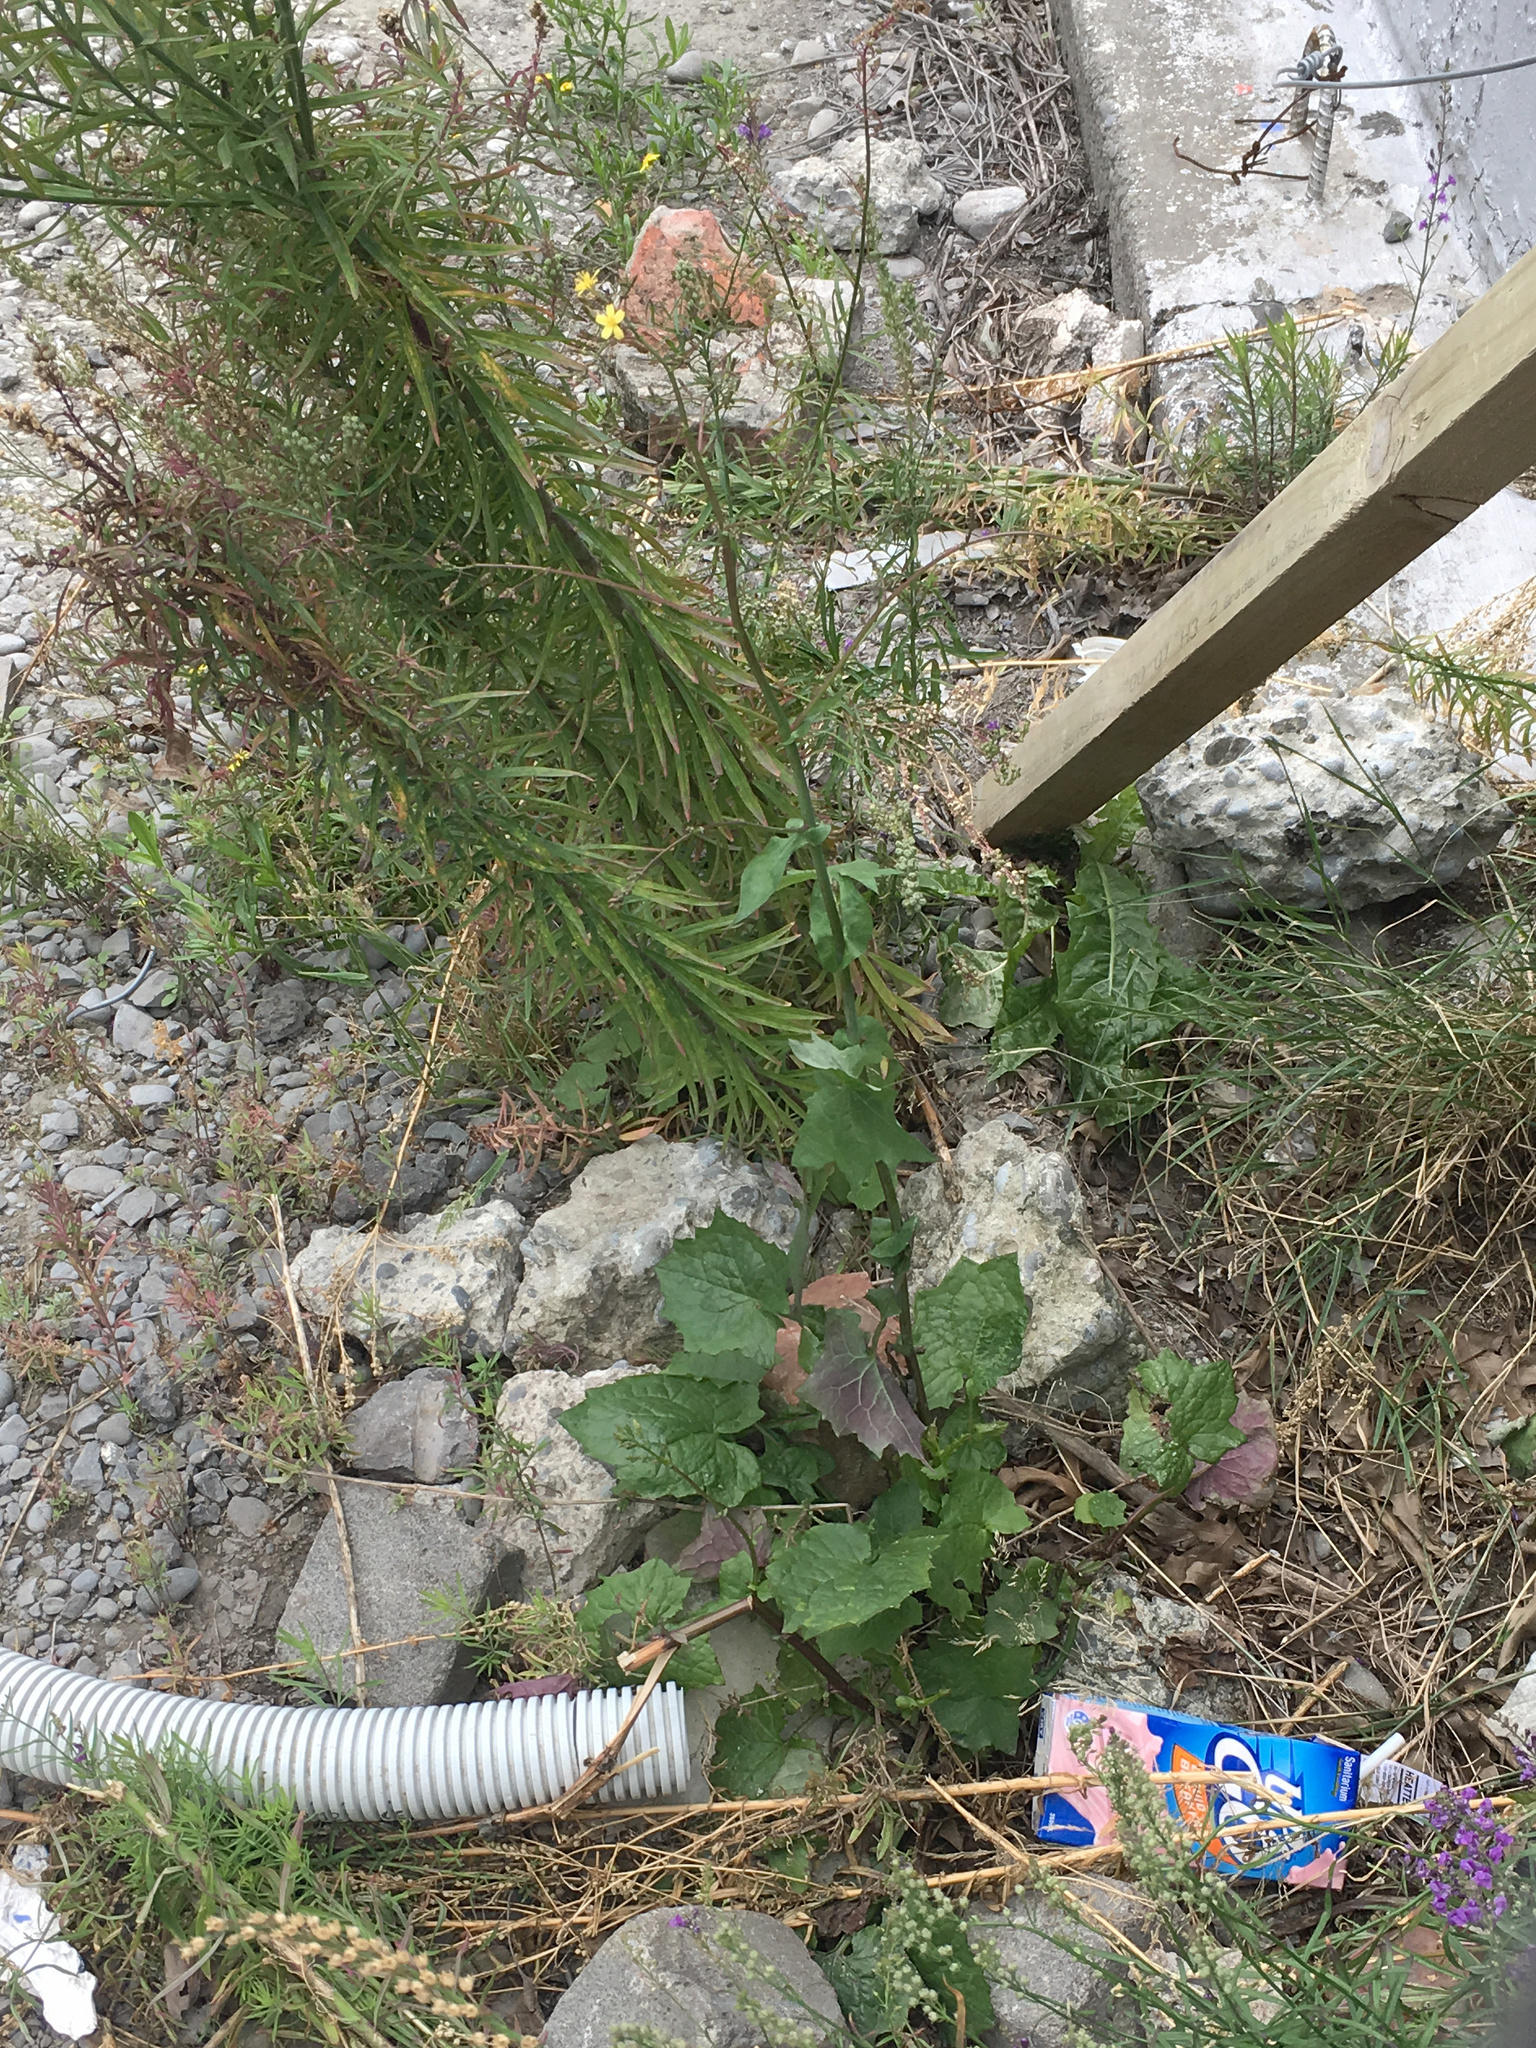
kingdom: Plantae
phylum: Tracheophyta
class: Magnoliopsida
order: Asterales
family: Asteraceae
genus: Mycelis
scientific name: Mycelis muralis
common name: Wall lettuce
